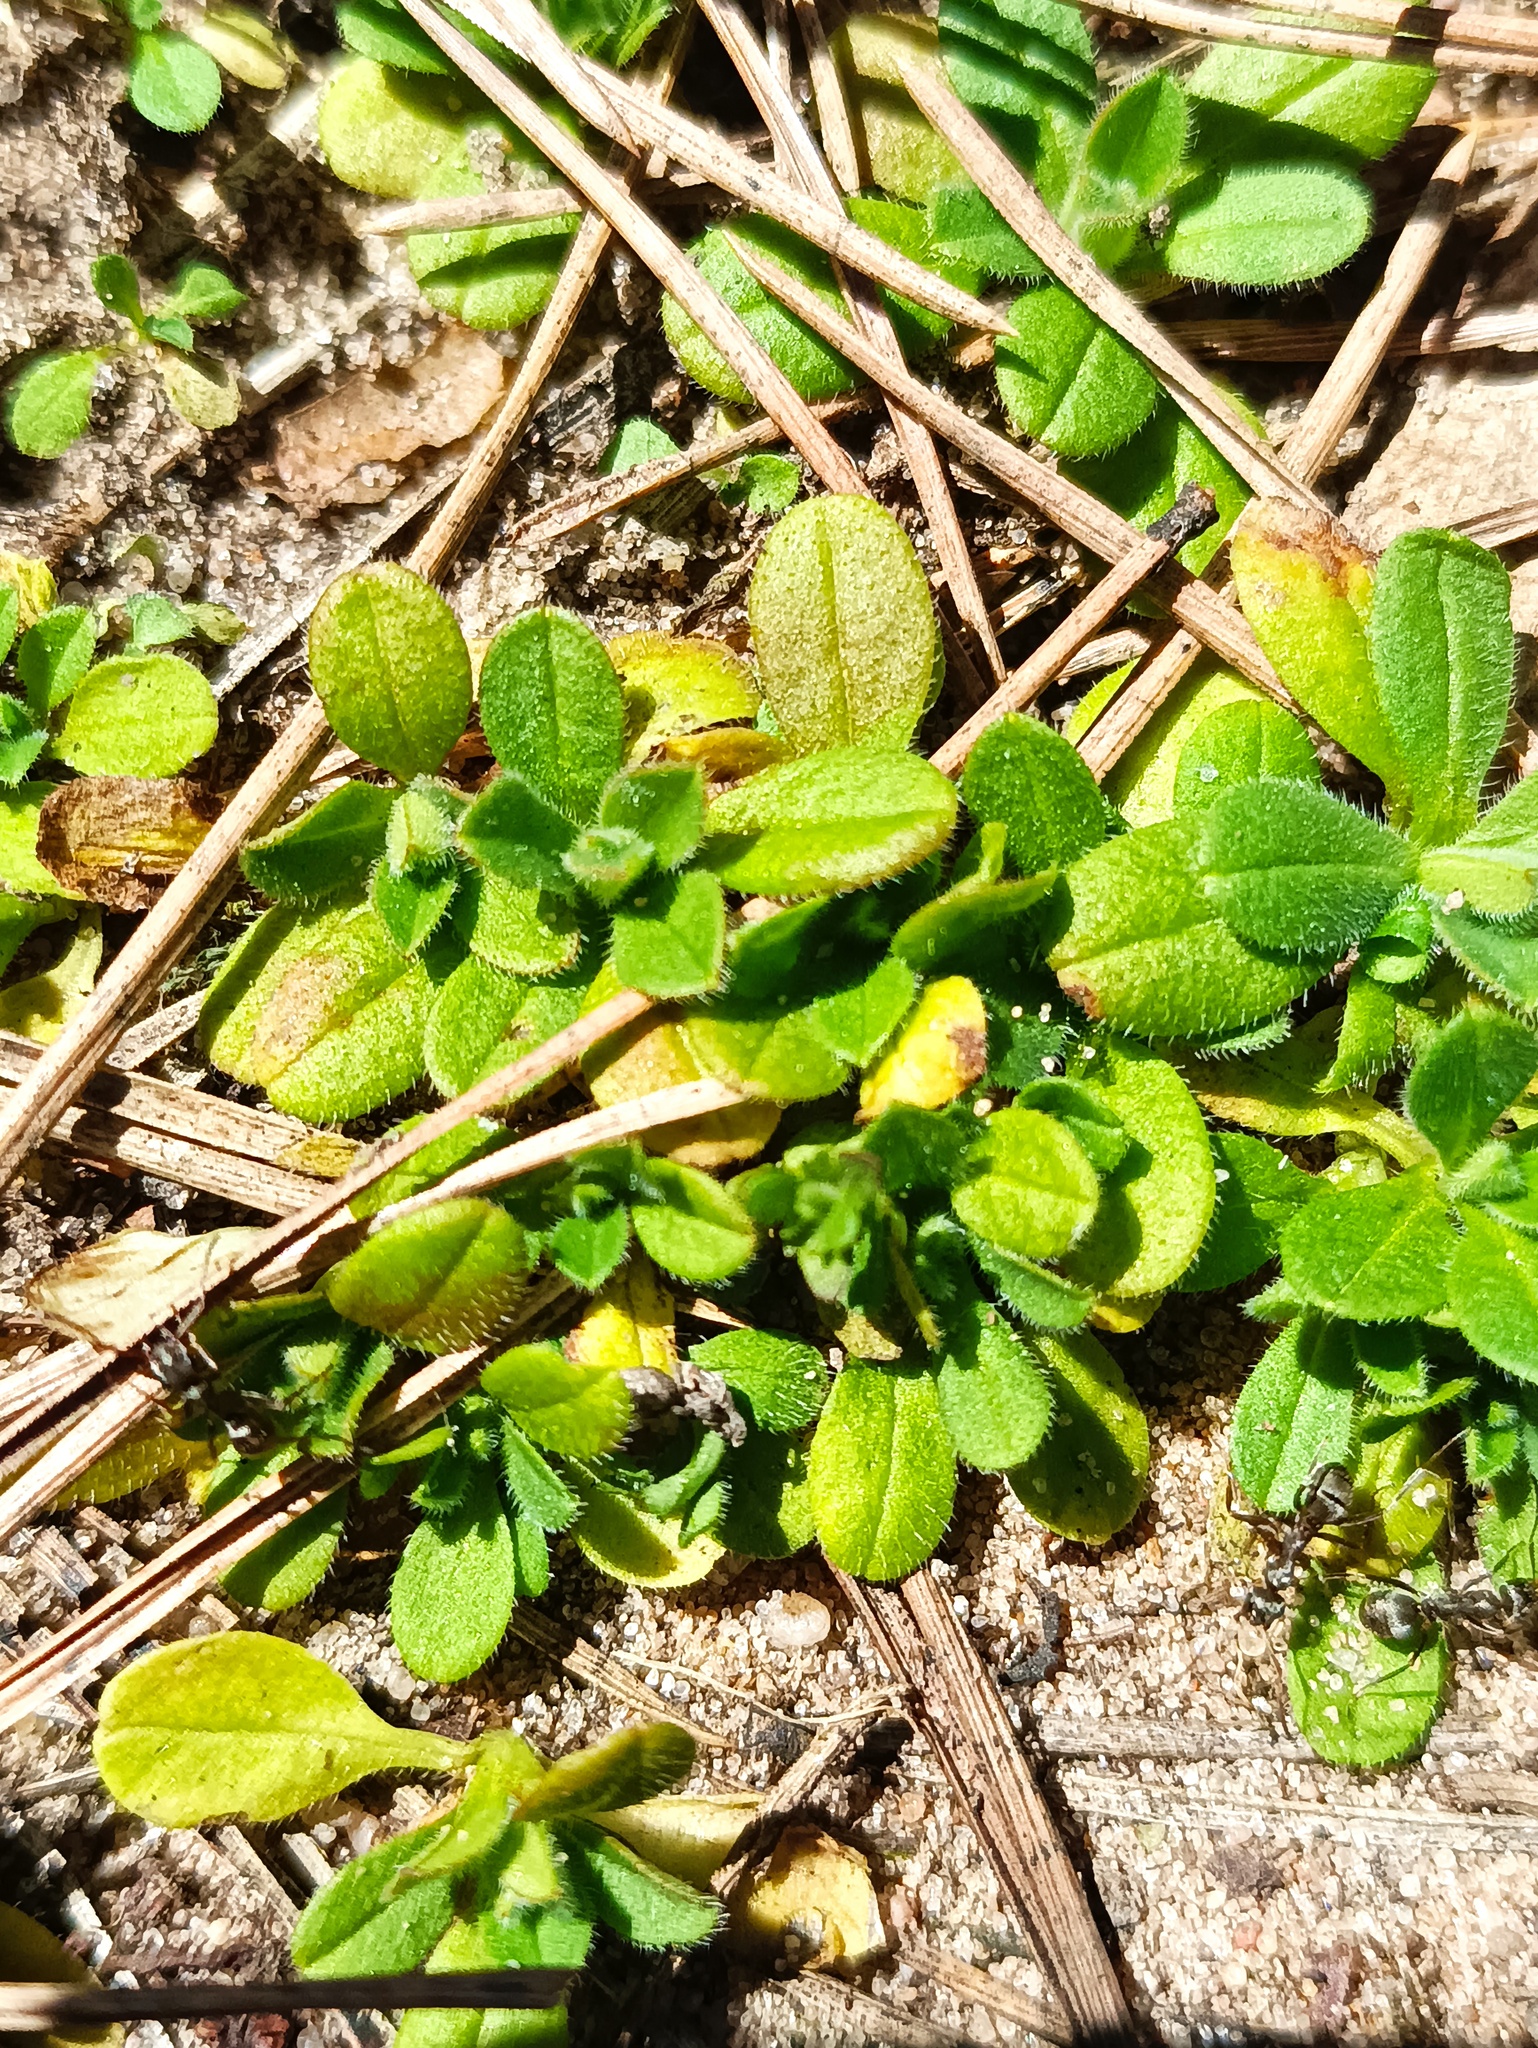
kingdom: Plantae
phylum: Tracheophyta
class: Magnoliopsida
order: Caryophyllales
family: Caryophyllaceae
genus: Cerastium
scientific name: Cerastium holosteoides
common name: Big chickweed
